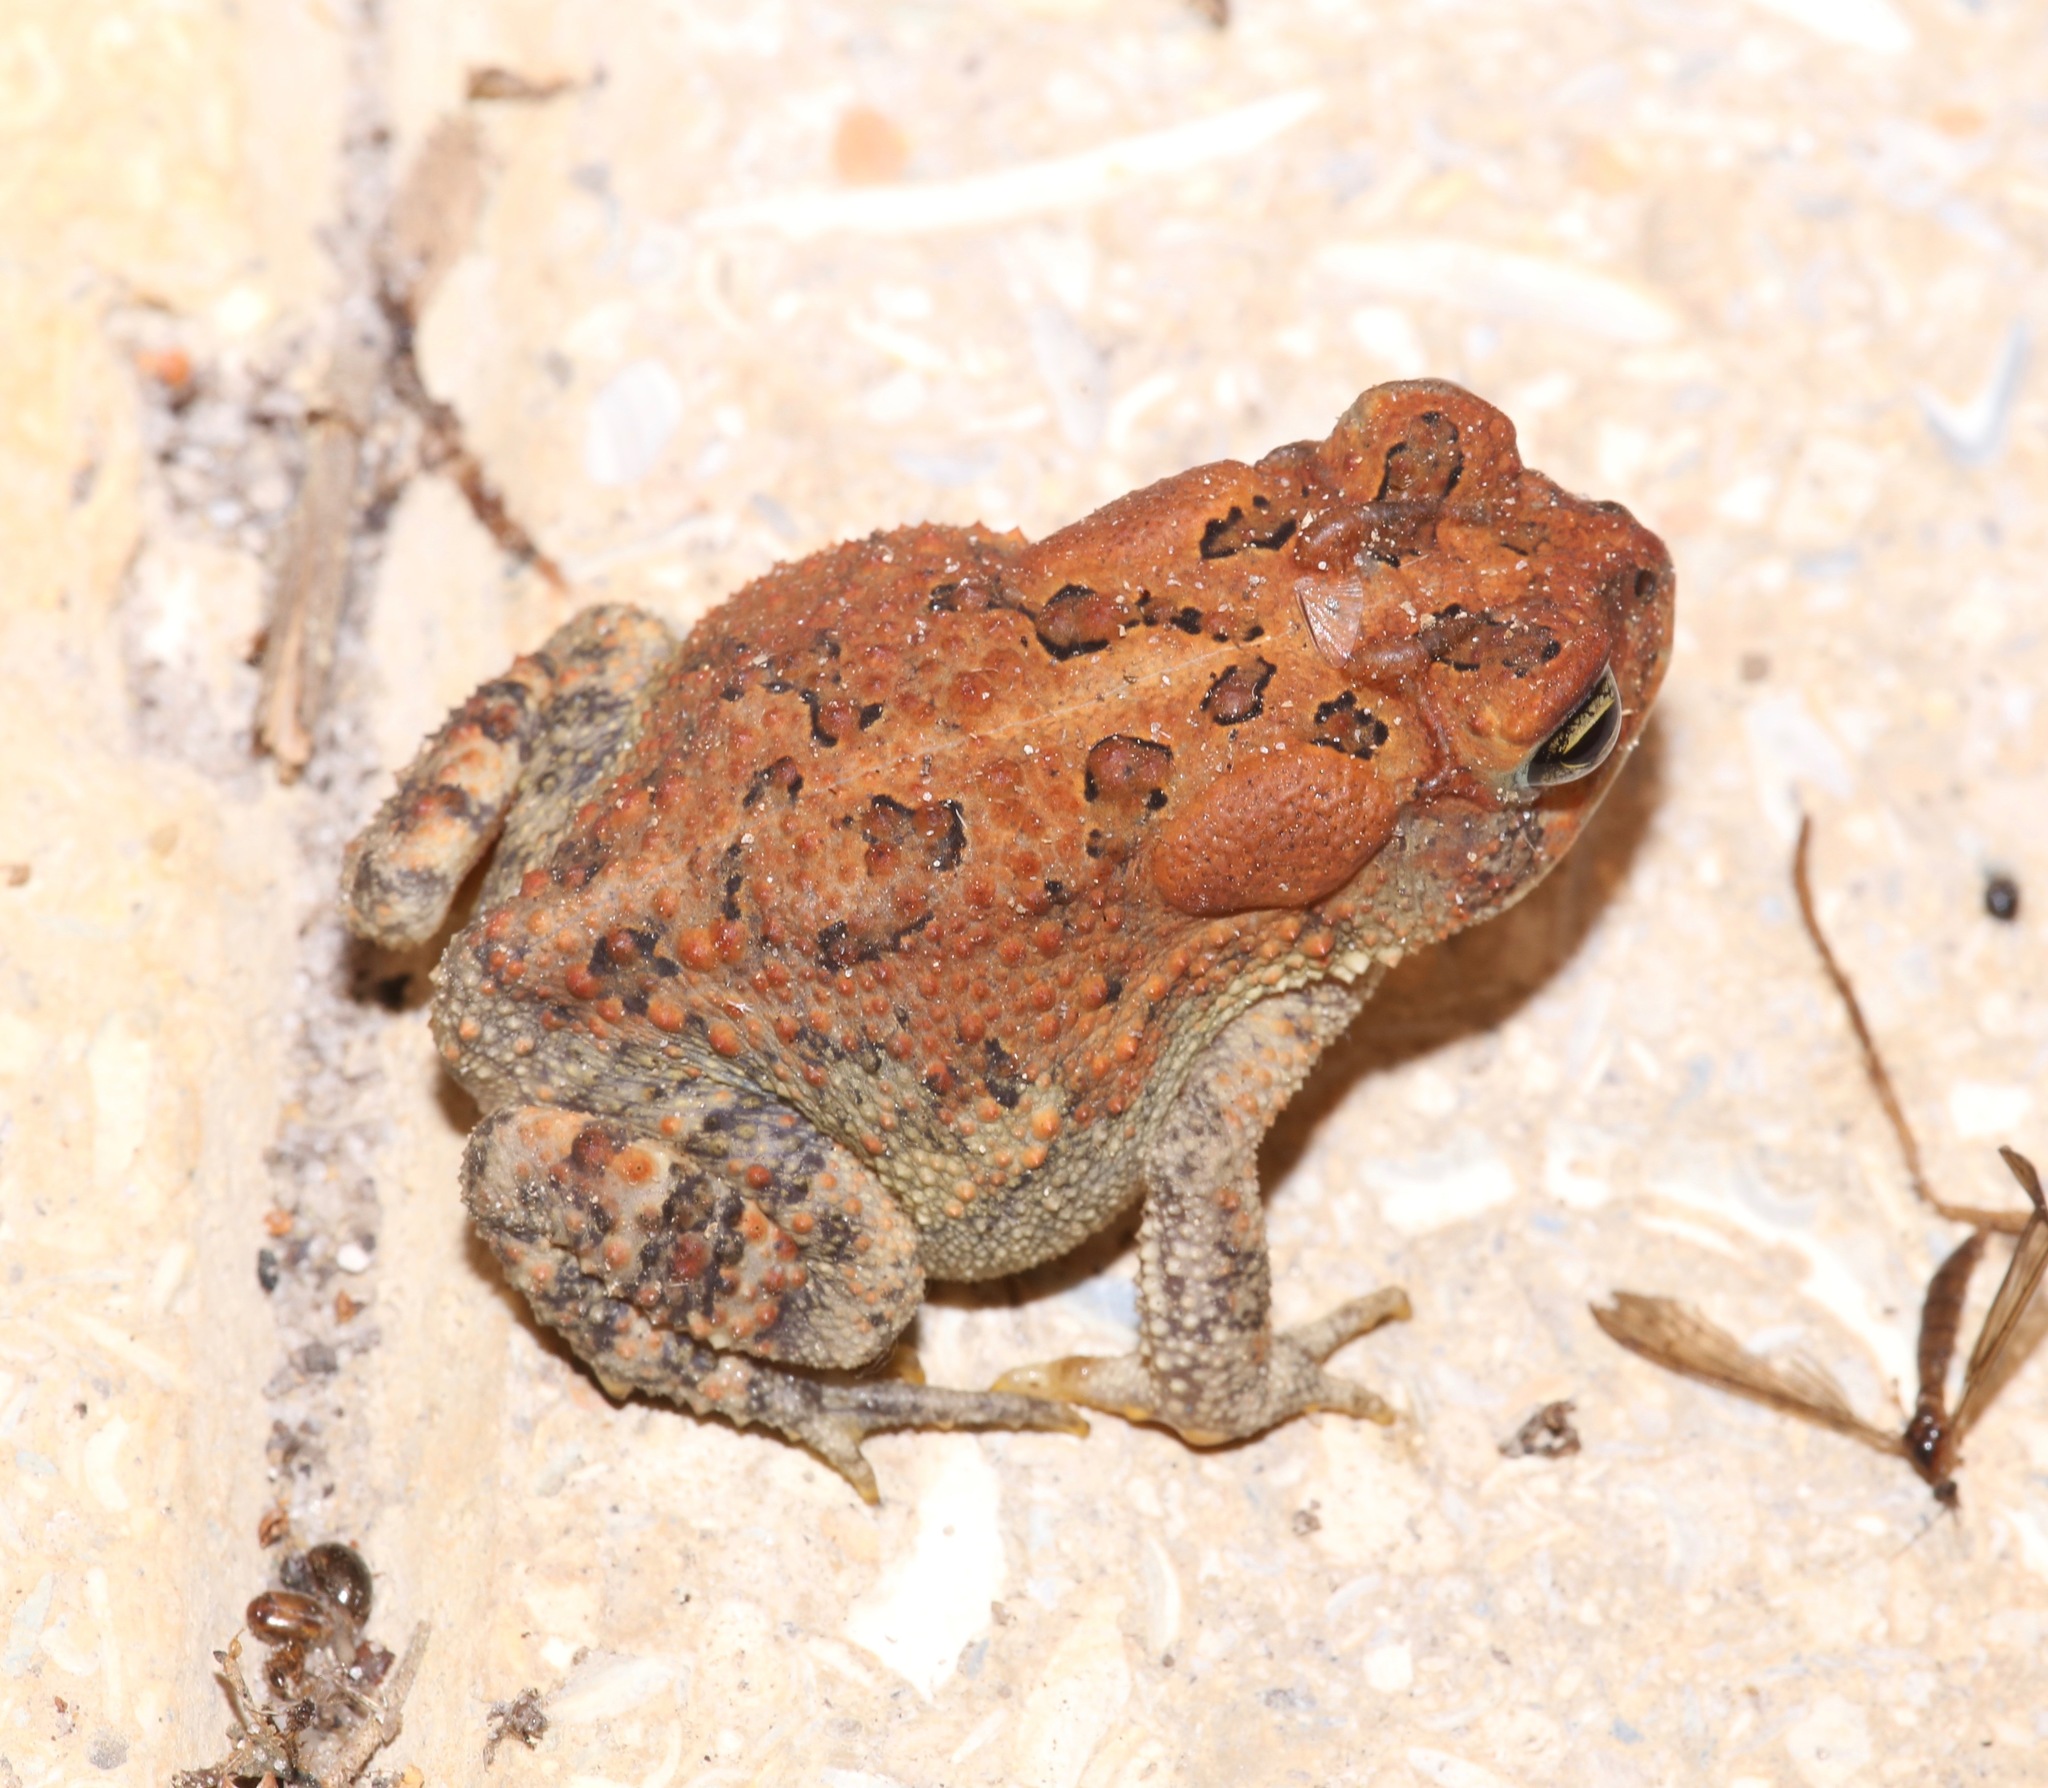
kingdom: Animalia
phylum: Chordata
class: Amphibia
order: Anura
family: Bufonidae
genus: Anaxyrus
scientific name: Anaxyrus terrestris
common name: Southern toad
